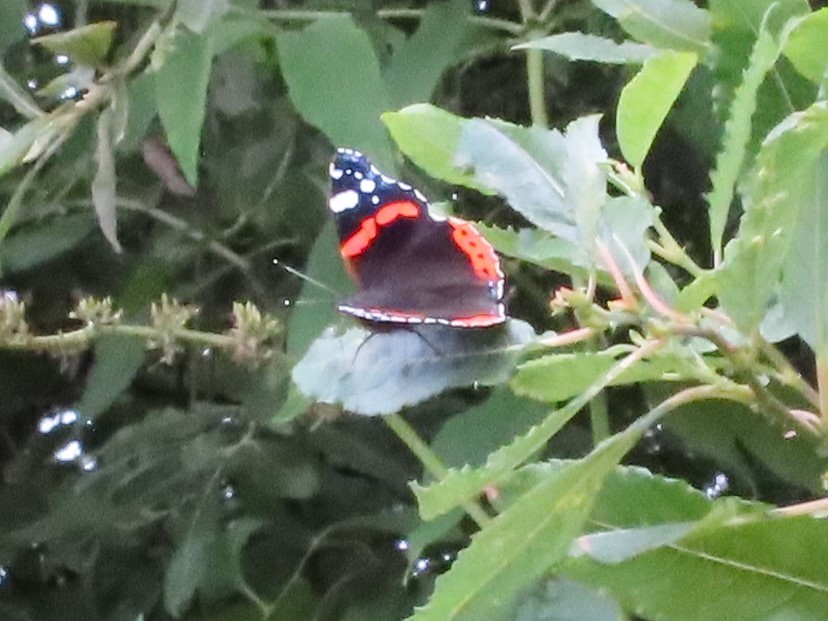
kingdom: Animalia
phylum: Arthropoda
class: Insecta
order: Lepidoptera
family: Nymphalidae
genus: Vanessa
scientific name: Vanessa atalanta
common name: Red admiral
